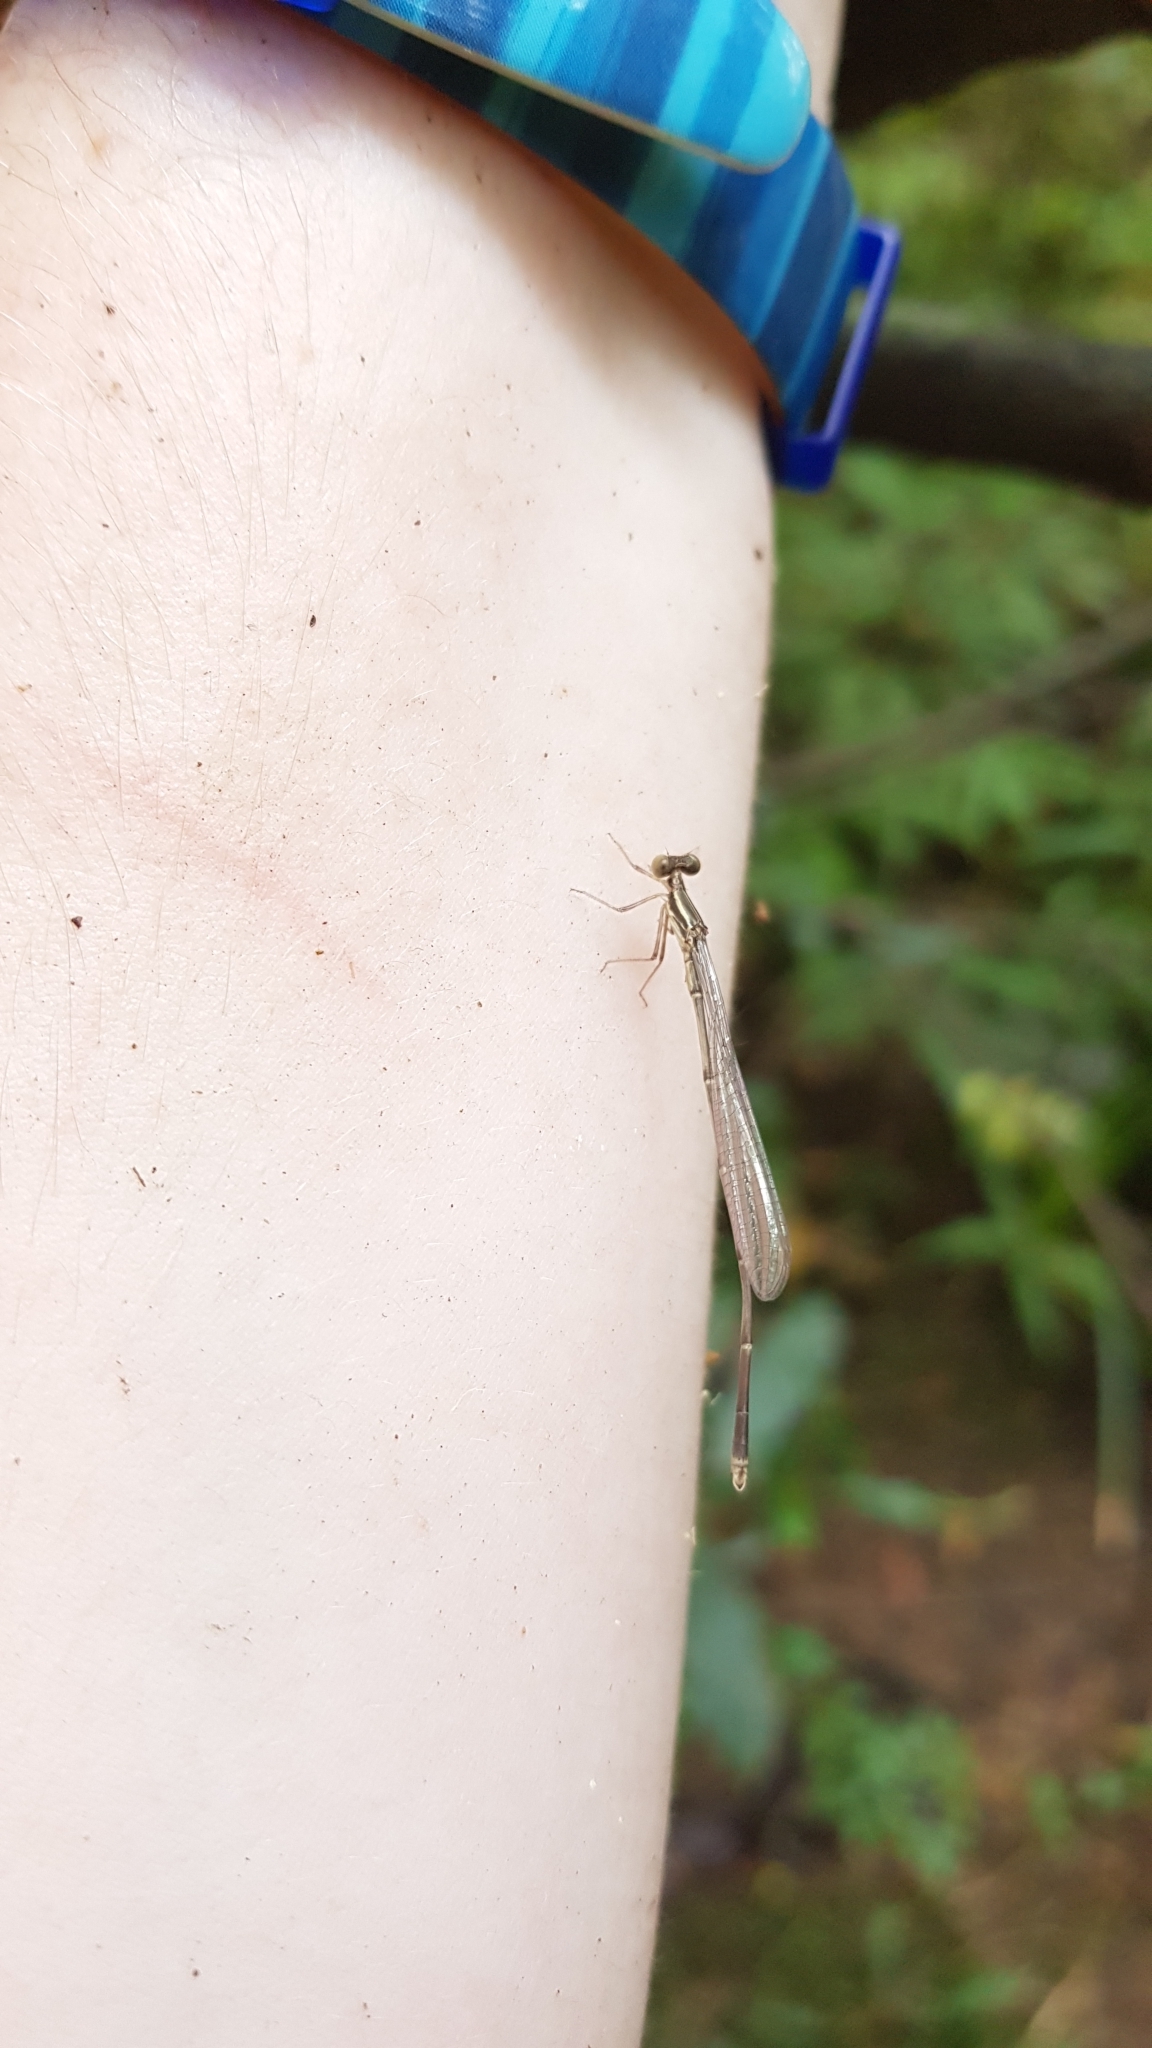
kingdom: Animalia
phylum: Arthropoda
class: Insecta
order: Odonata
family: Isostictidae
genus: Rhadinosticta
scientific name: Rhadinosticta simplex
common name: Powdered wiretail
